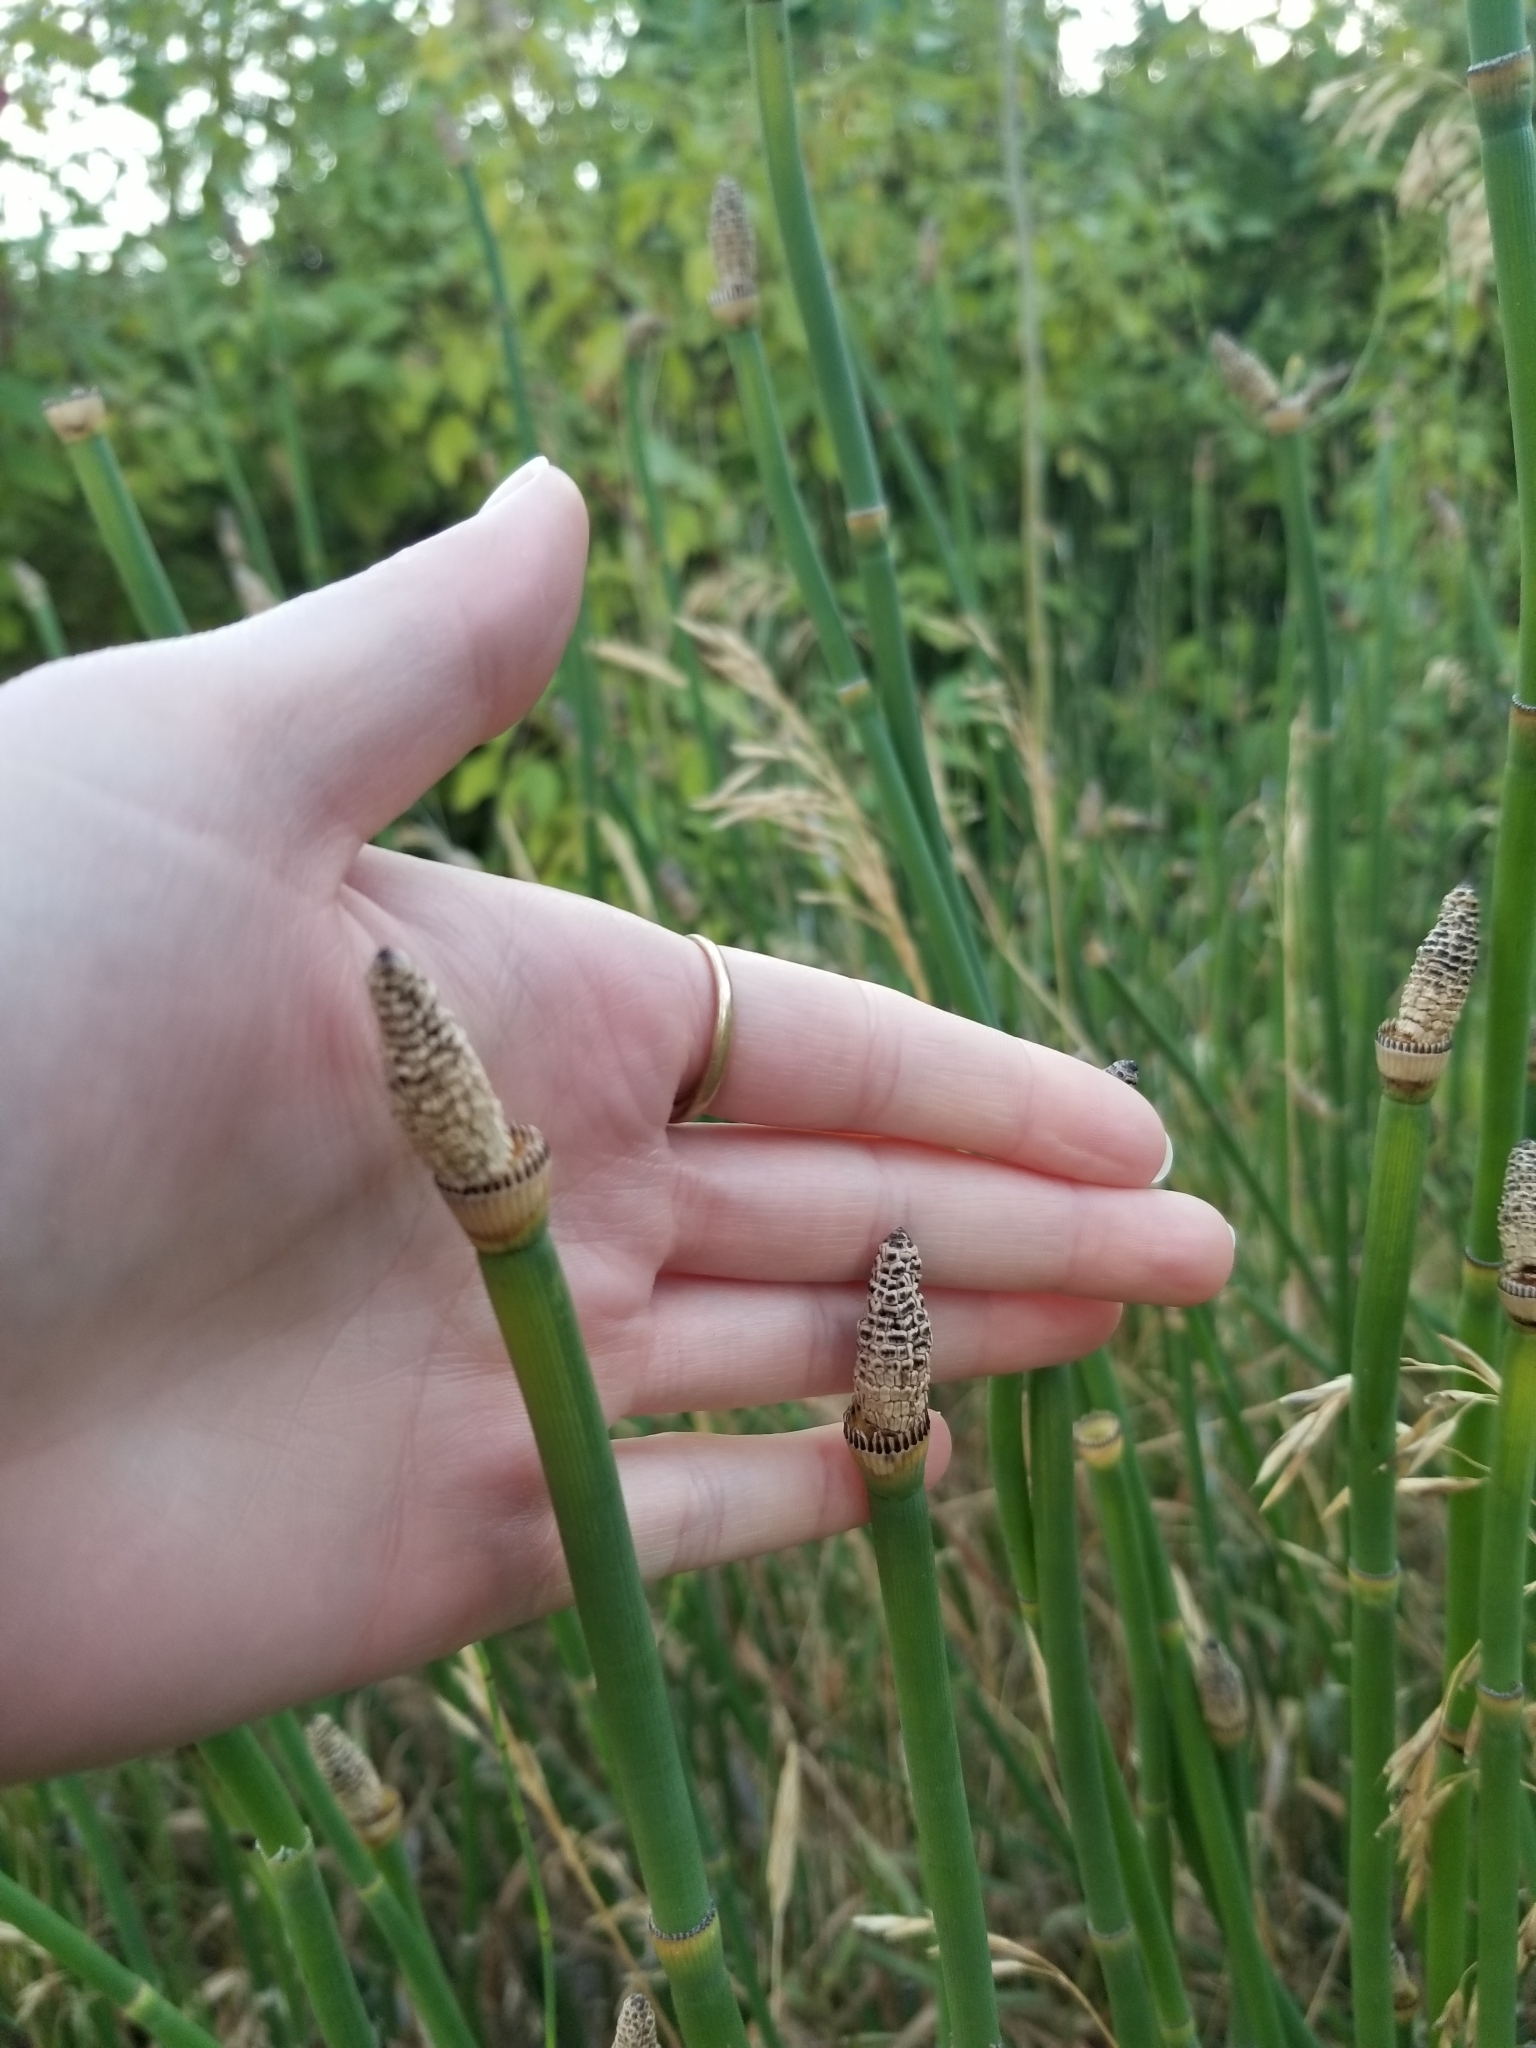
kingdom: Plantae
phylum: Tracheophyta
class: Polypodiopsida
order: Equisetales
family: Equisetaceae
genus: Equisetum
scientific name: Equisetum hyemale
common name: Rough horsetail
